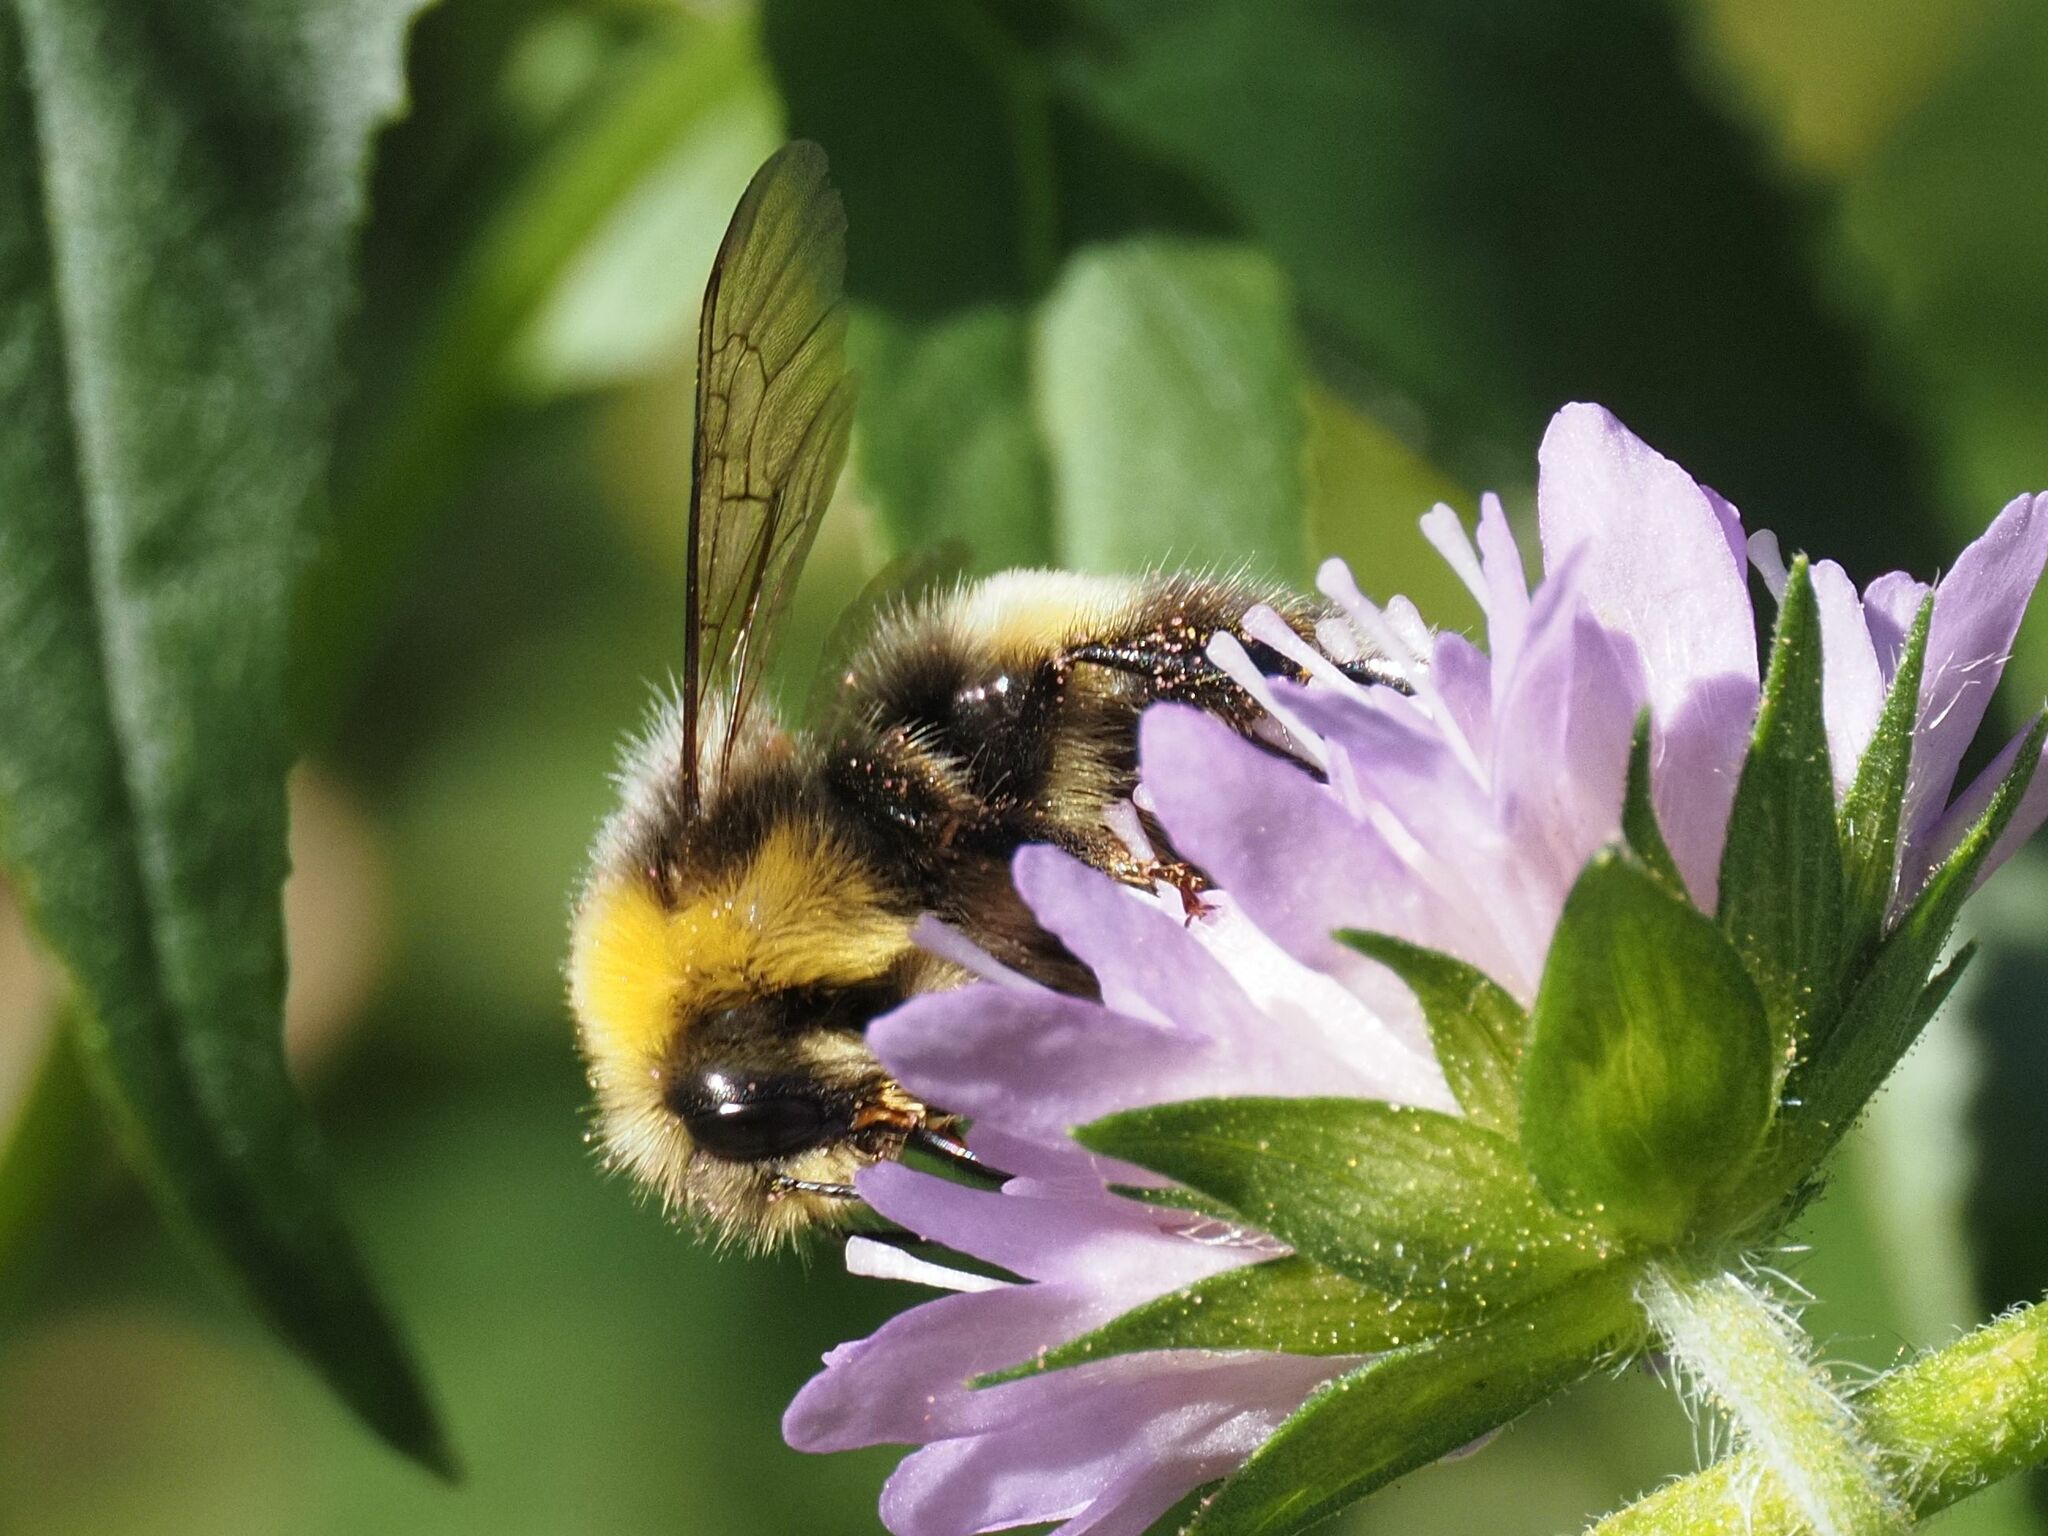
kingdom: Animalia
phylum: Arthropoda
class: Insecta
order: Hymenoptera
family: Apidae
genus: Bombus
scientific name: Bombus lucorum
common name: White-tailed bumblebee
